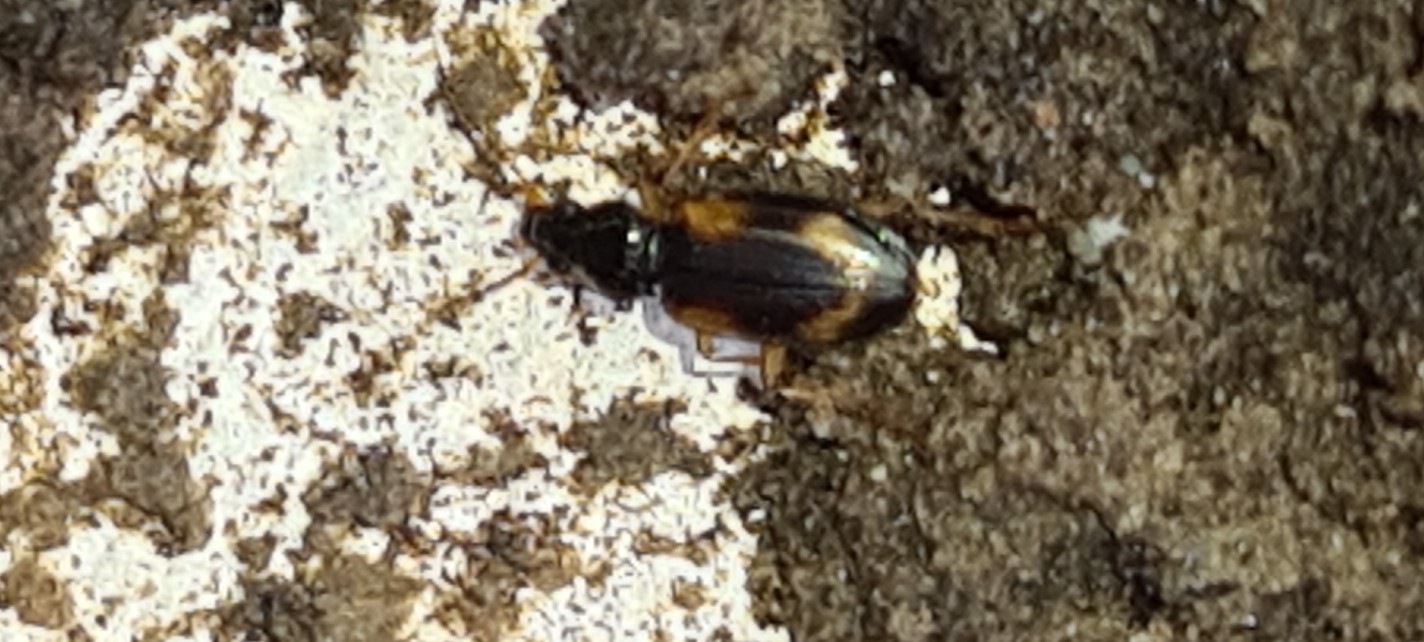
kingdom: Animalia
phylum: Arthropoda
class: Insecta
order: Coleoptera
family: Carabidae
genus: Bembidion
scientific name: Bembidion tetracolum
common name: Seine riverbank ground beetle
